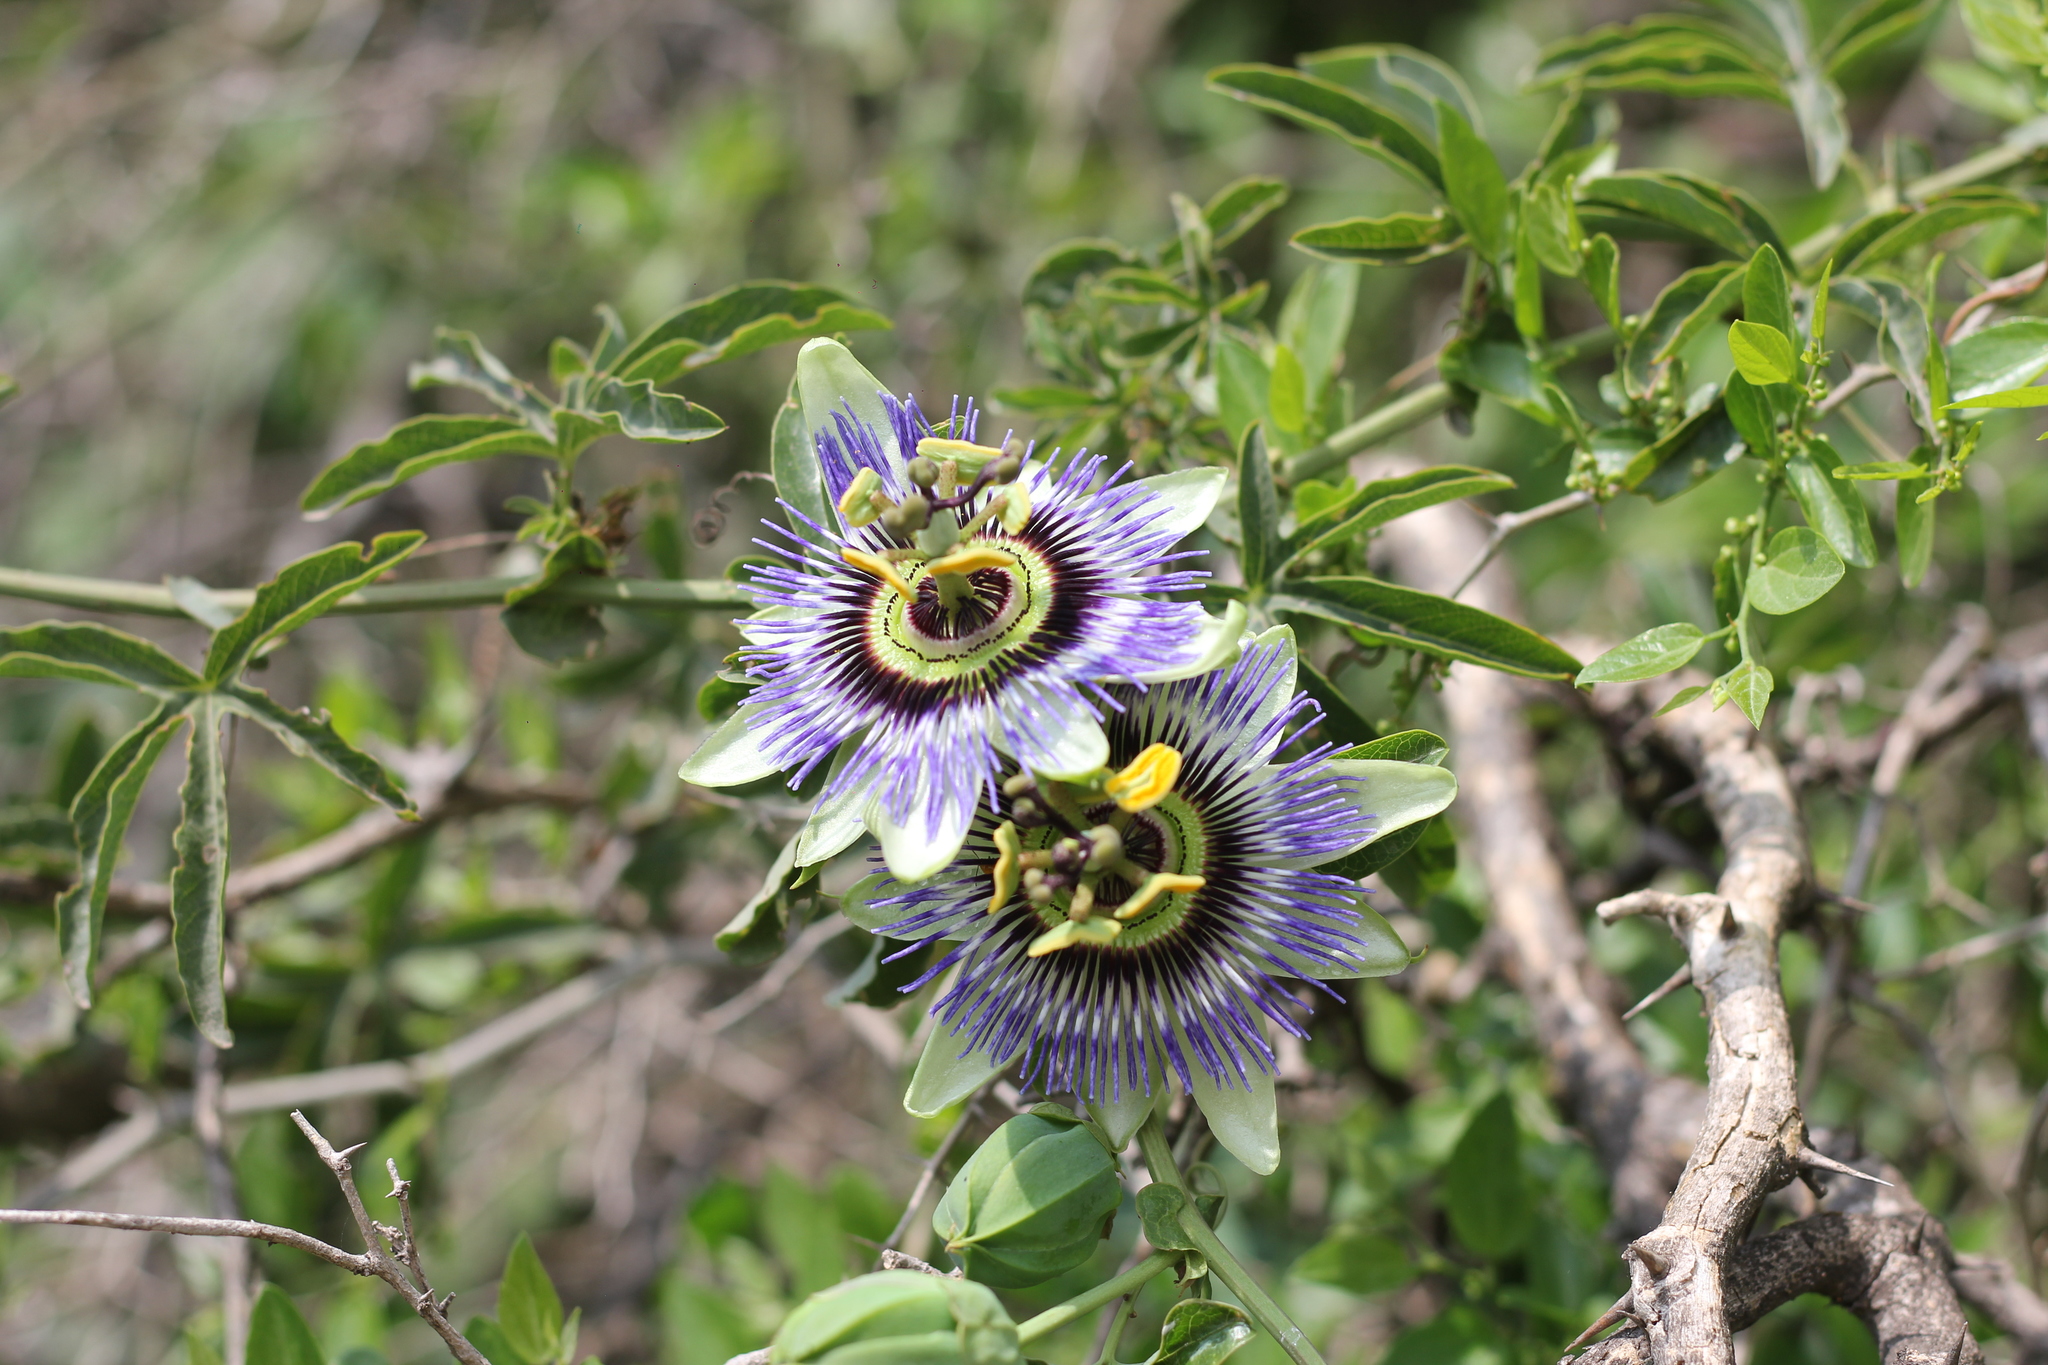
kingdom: Plantae
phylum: Tracheophyta
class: Magnoliopsida
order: Malpighiales
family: Passifloraceae
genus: Passiflora
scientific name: Passiflora caerulea
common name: Blue passionflower
